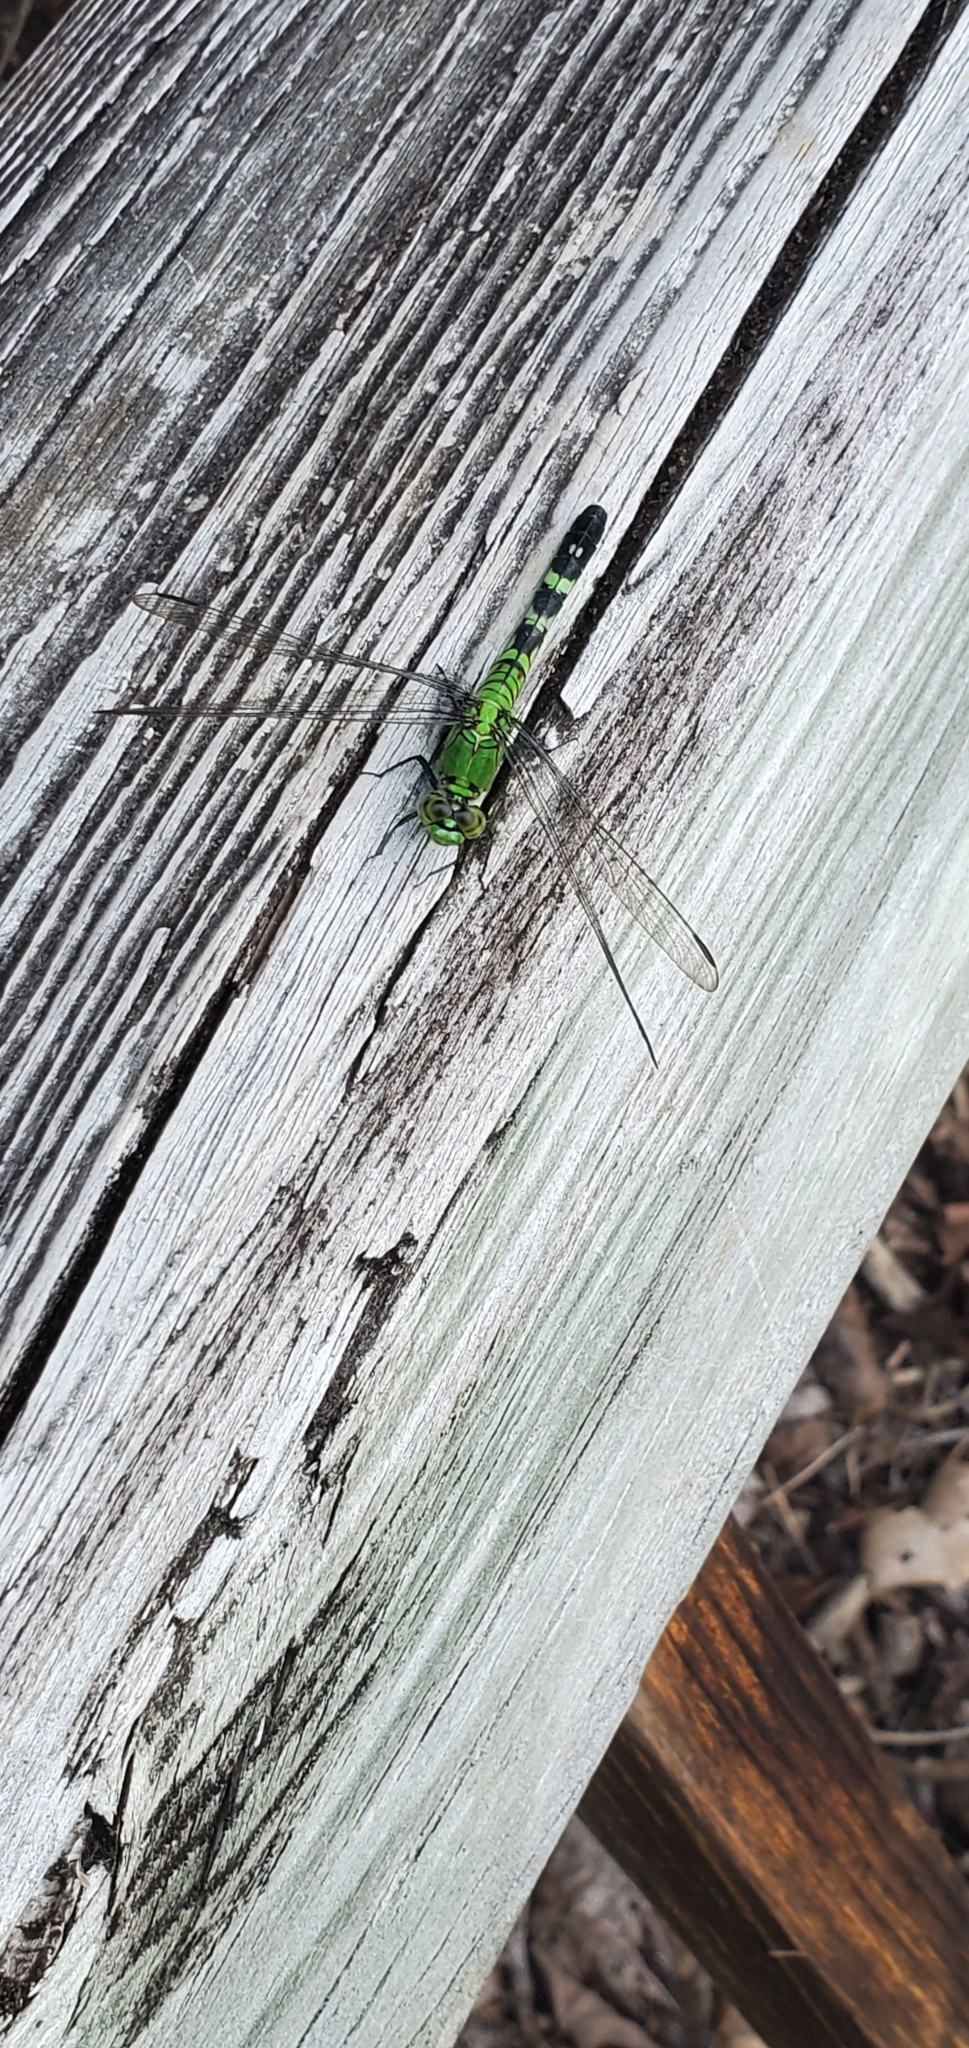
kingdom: Animalia
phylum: Arthropoda
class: Insecta
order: Odonata
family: Libellulidae
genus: Erythemis
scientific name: Erythemis simplicicollis
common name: Eastern pondhawk
